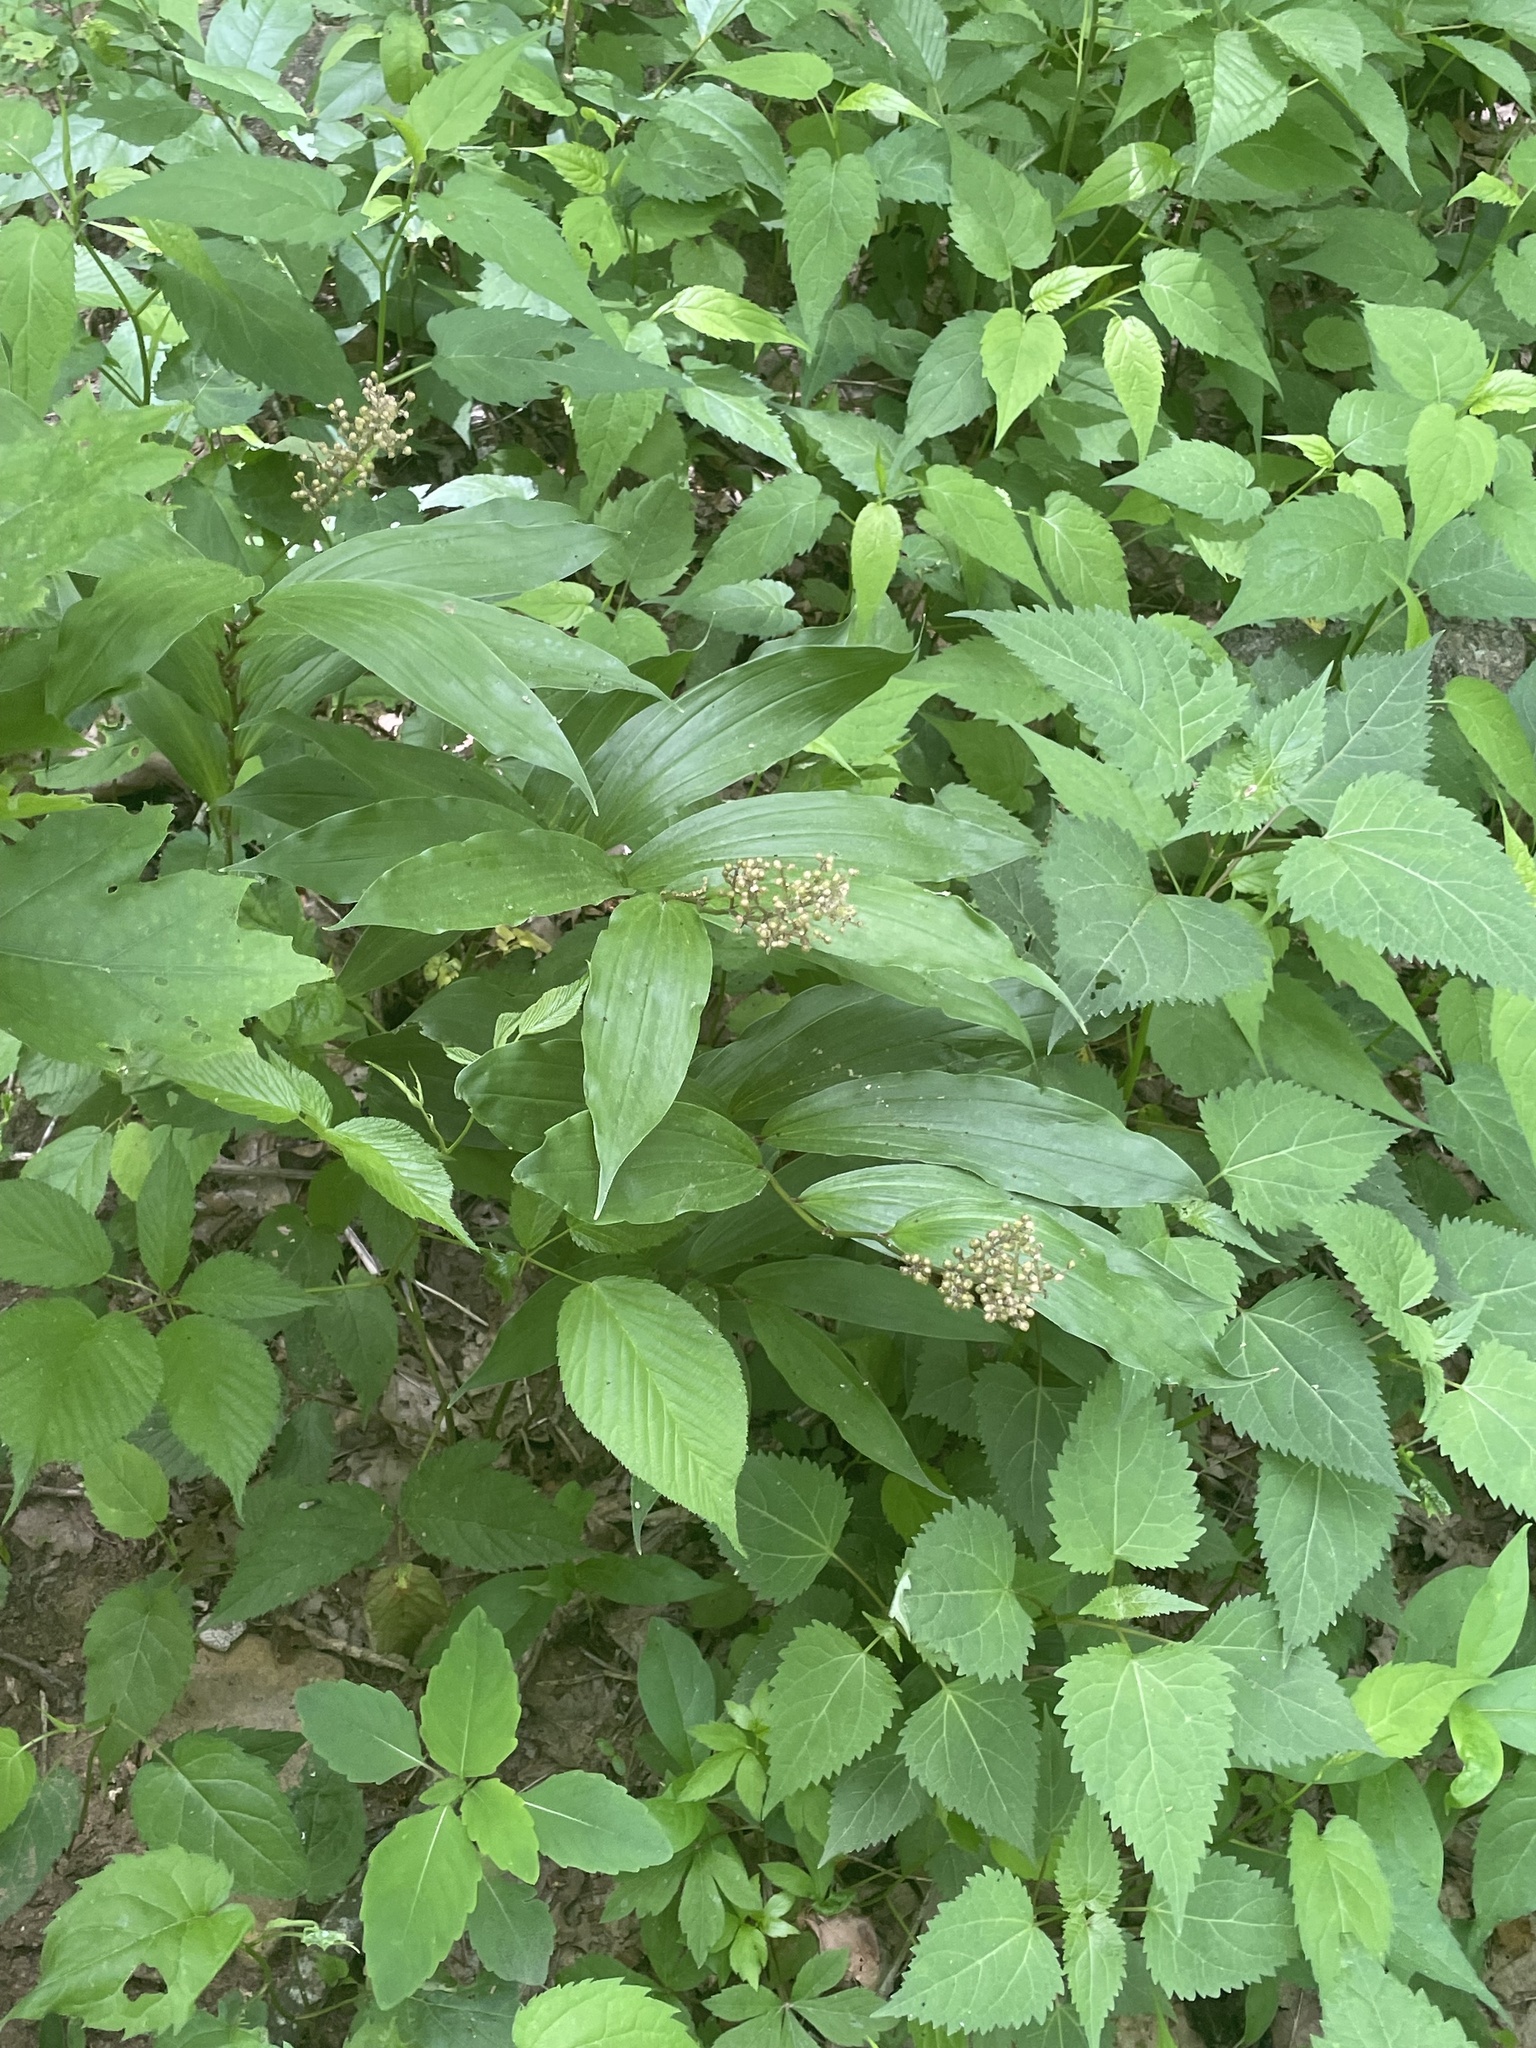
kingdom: Plantae
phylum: Tracheophyta
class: Liliopsida
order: Asparagales
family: Asparagaceae
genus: Maianthemum
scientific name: Maianthemum racemosum
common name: False spikenard
